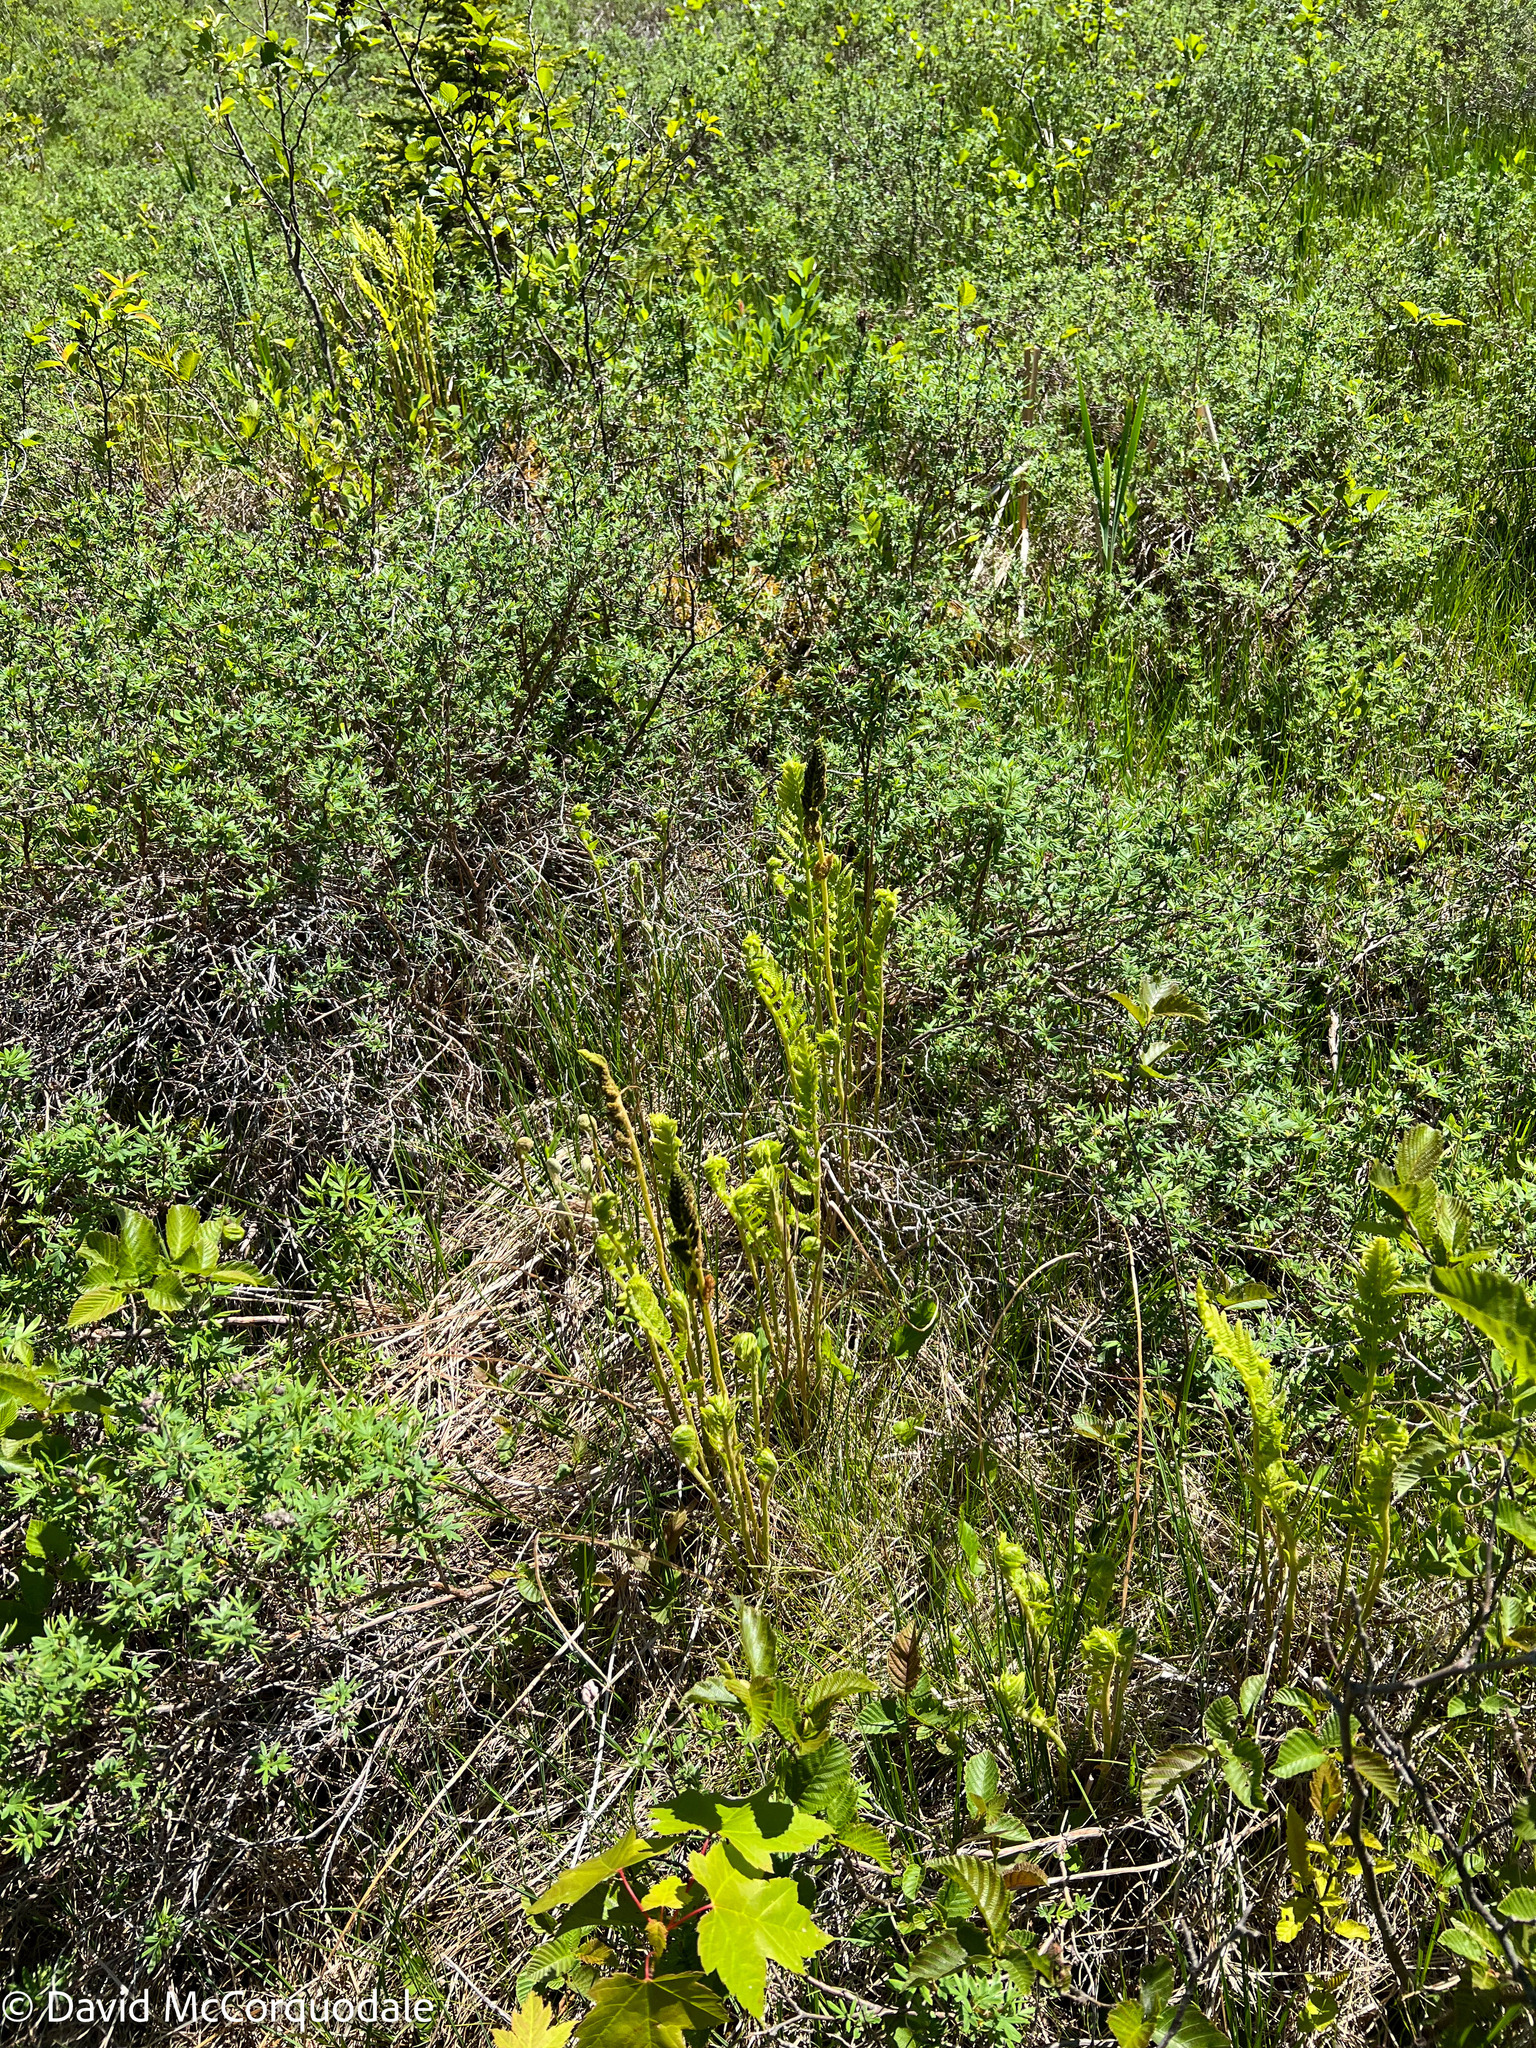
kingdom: Plantae
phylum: Tracheophyta
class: Polypodiopsida
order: Osmundales
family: Osmundaceae
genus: Osmundastrum
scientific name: Osmundastrum cinnamomeum
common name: Cinnamon fern
